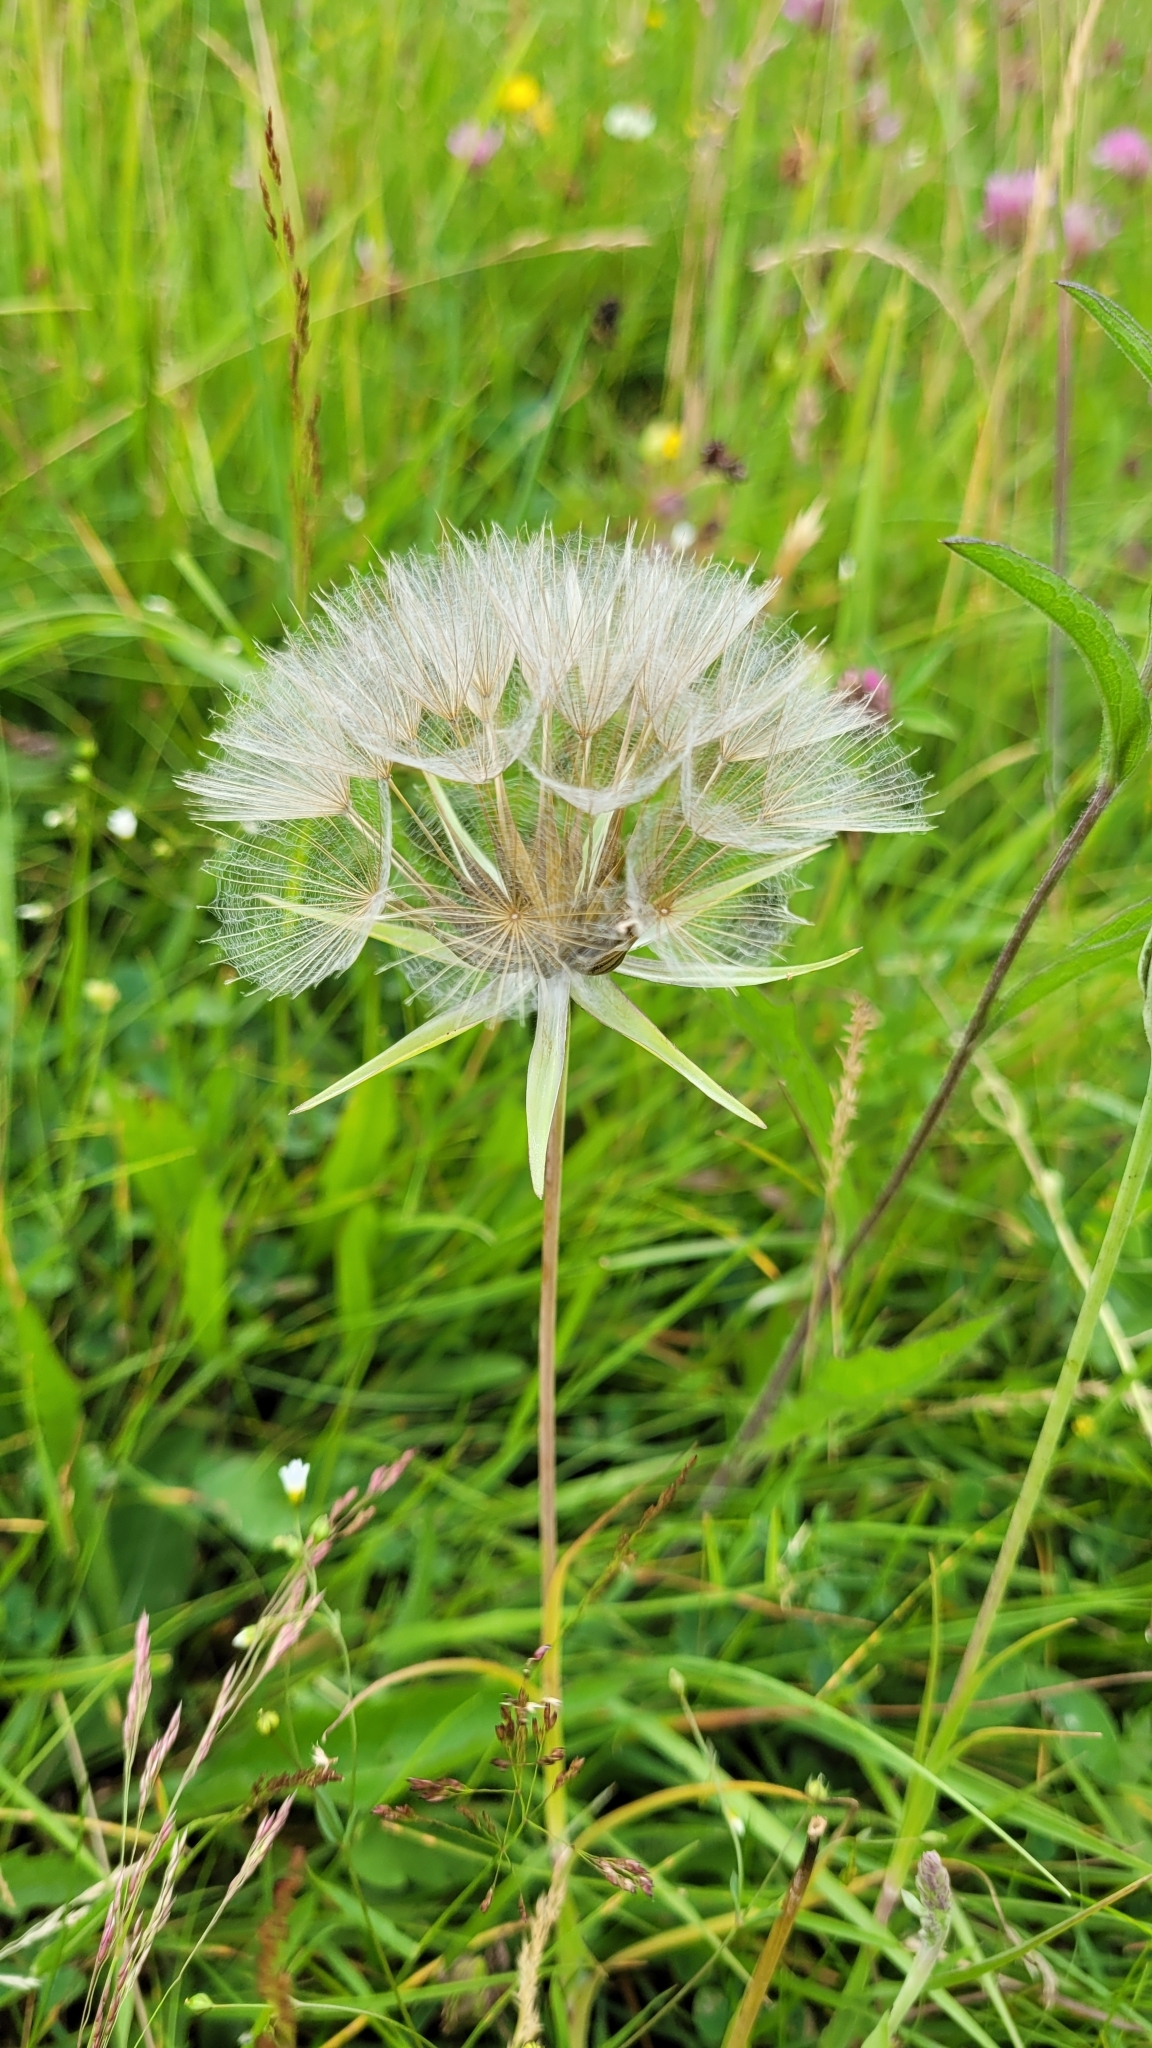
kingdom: Plantae
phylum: Tracheophyta
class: Magnoliopsida
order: Asterales
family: Asteraceae
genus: Tragopogon
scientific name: Tragopogon pratensis
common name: Goat's-beard
